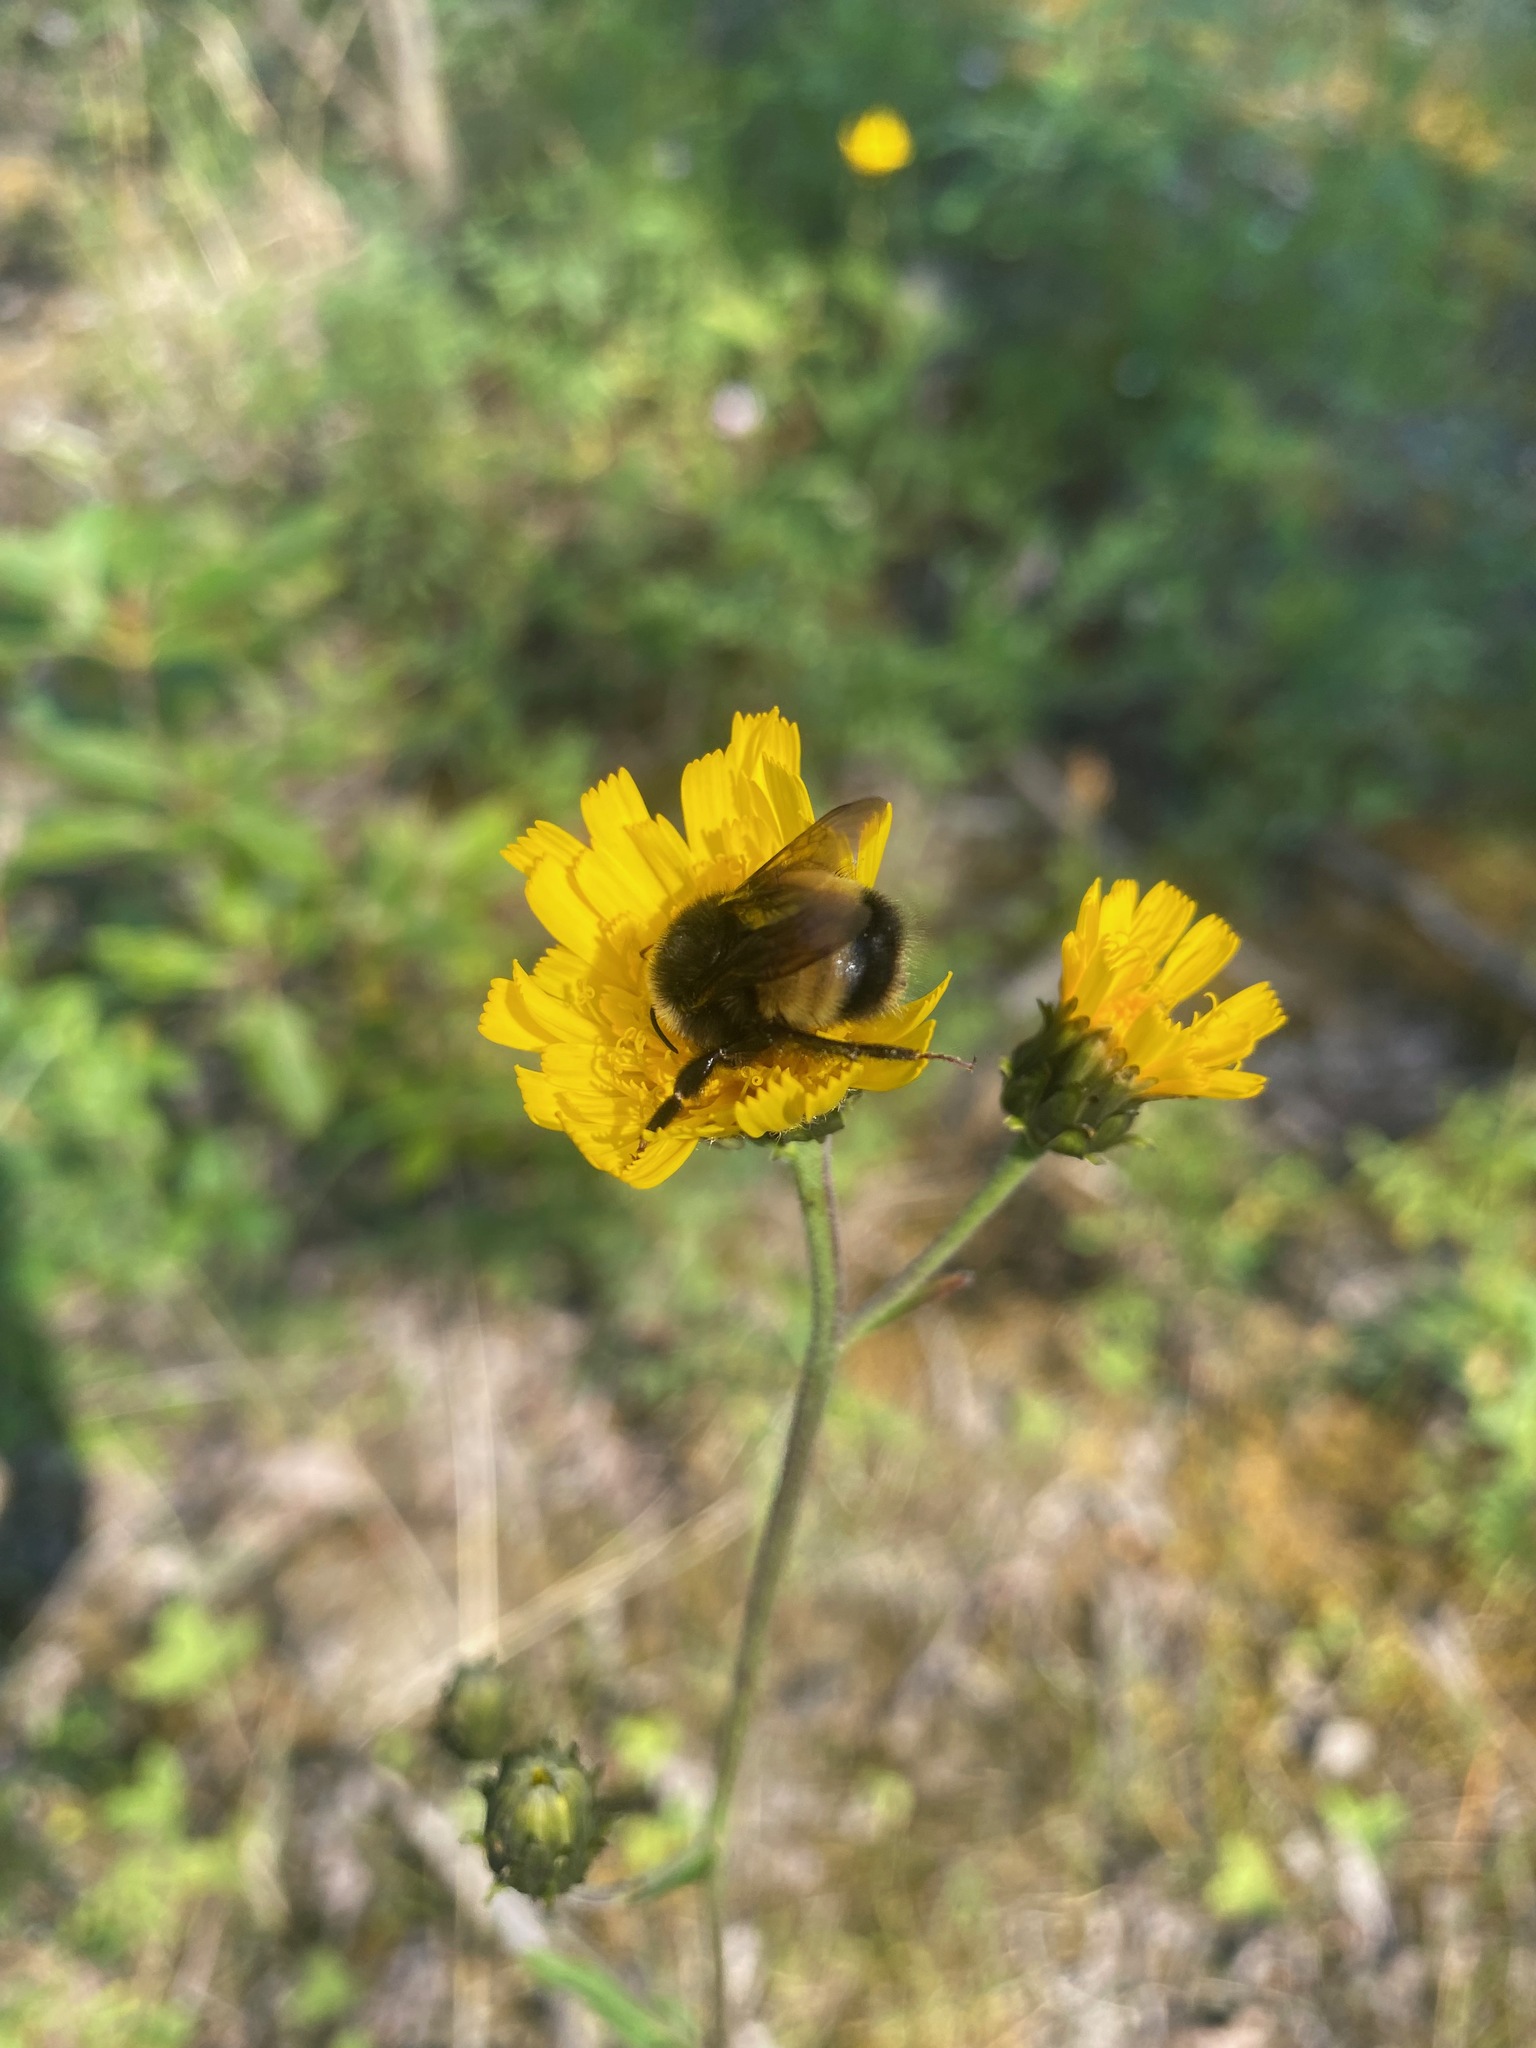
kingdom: Animalia
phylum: Arthropoda
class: Insecta
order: Hymenoptera
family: Apidae
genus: Bombus
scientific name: Bombus terricola
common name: Yellow-banded bumble bee
